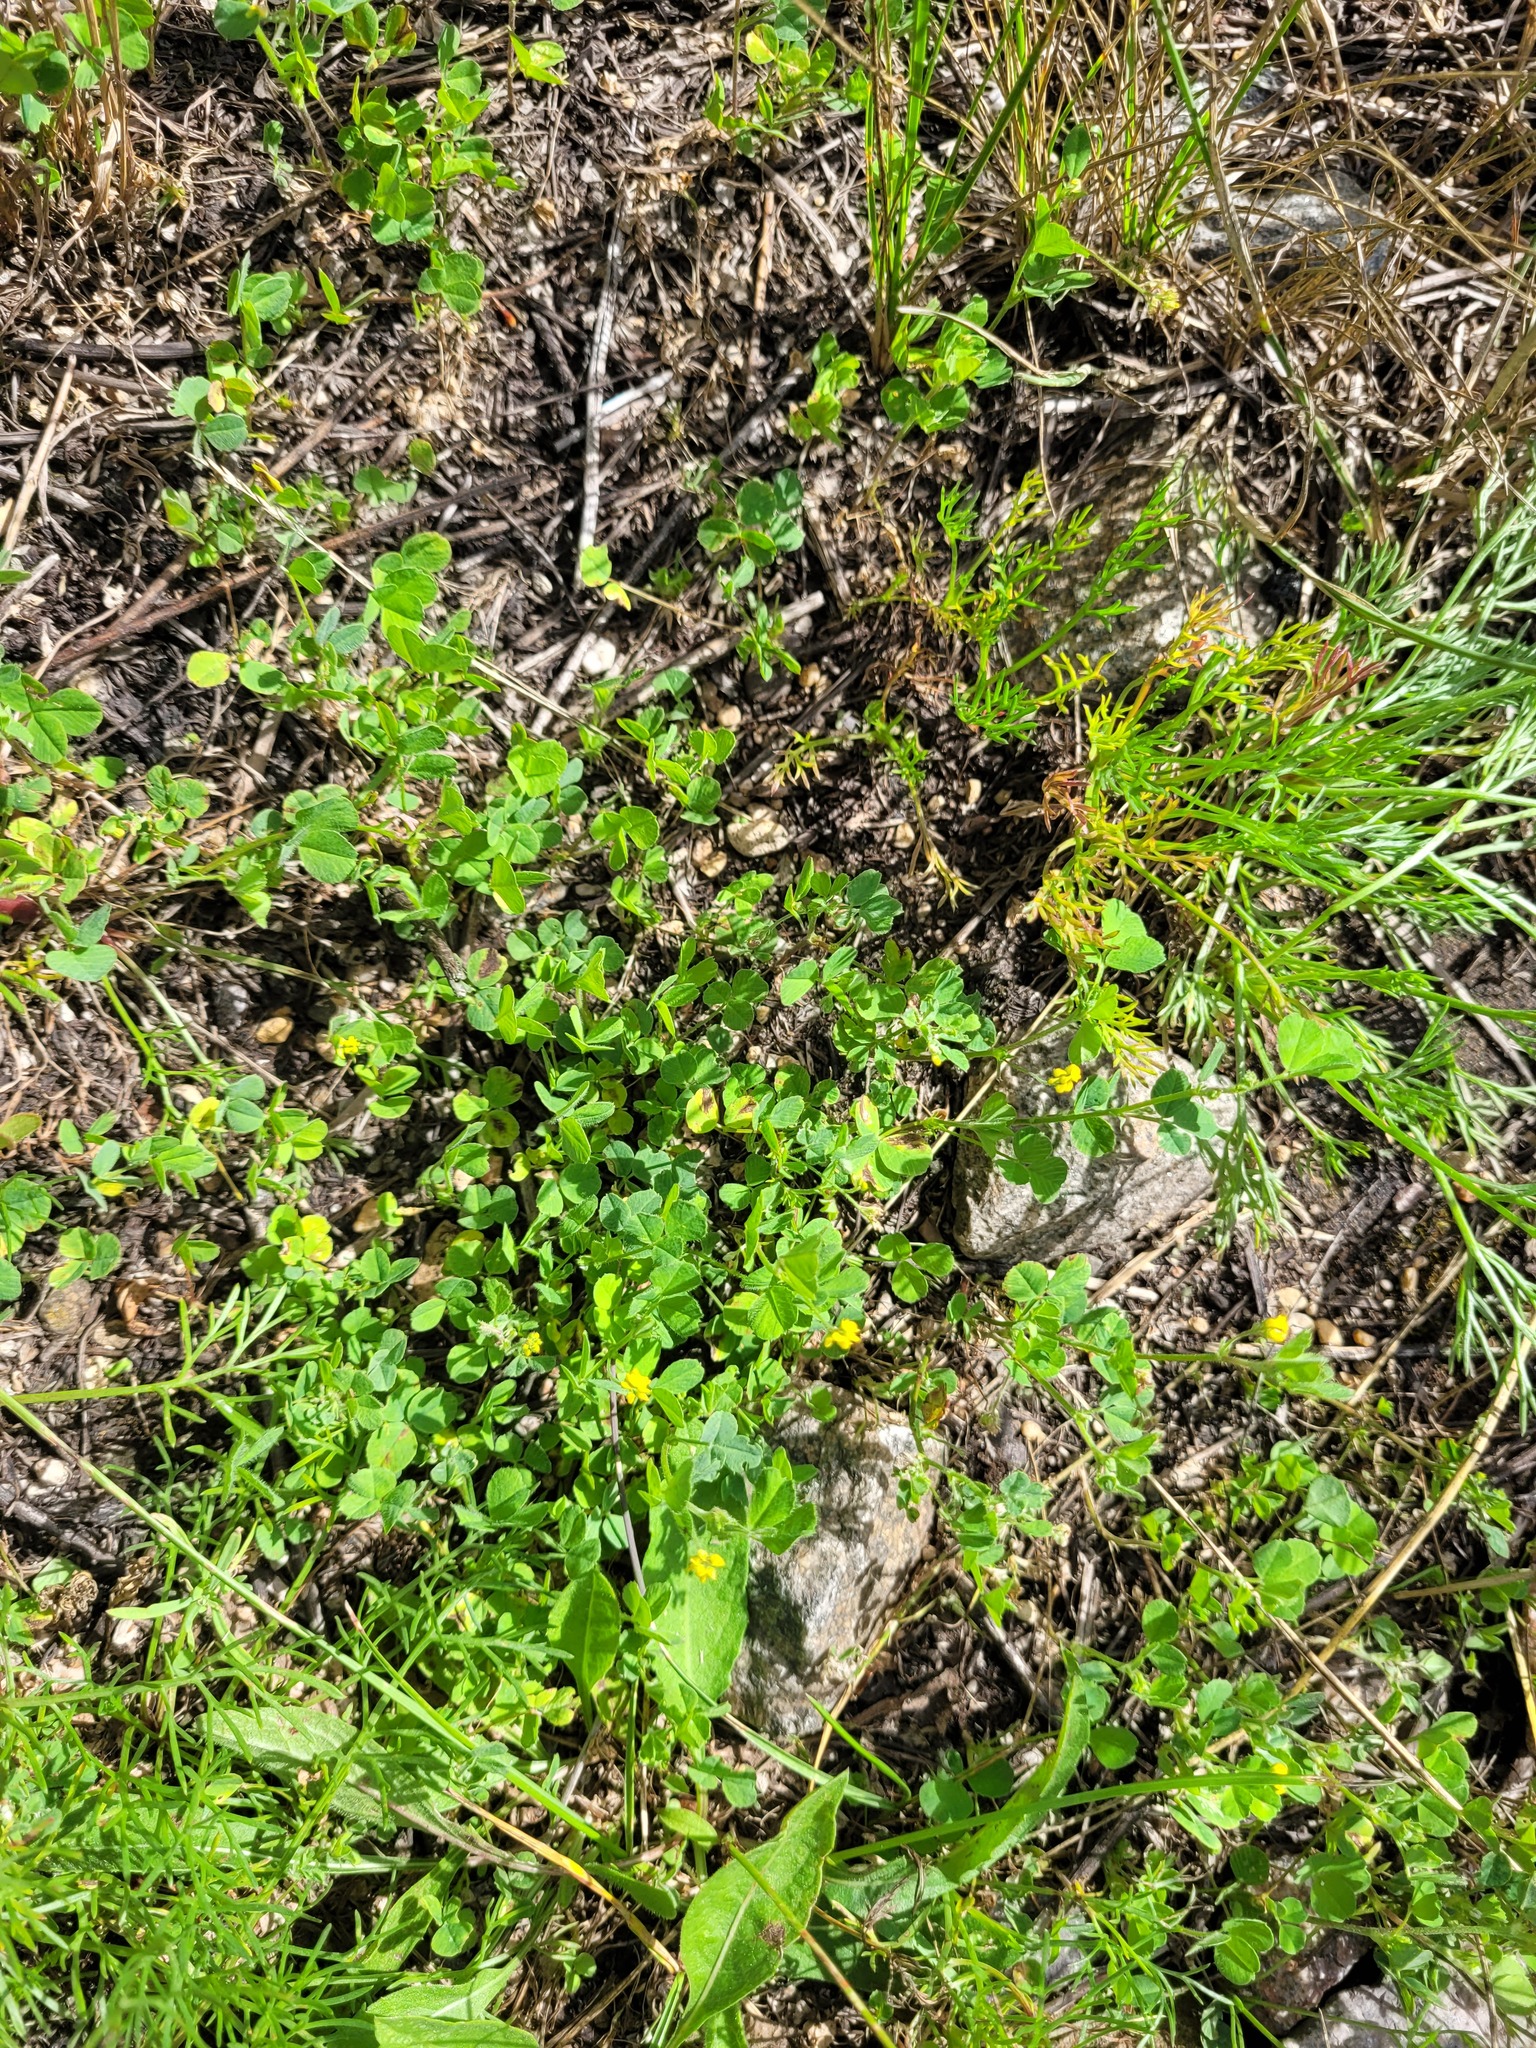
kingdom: Plantae
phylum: Tracheophyta
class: Magnoliopsida
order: Fabales
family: Fabaceae
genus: Medicago
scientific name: Medicago lupulina
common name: Black medick
